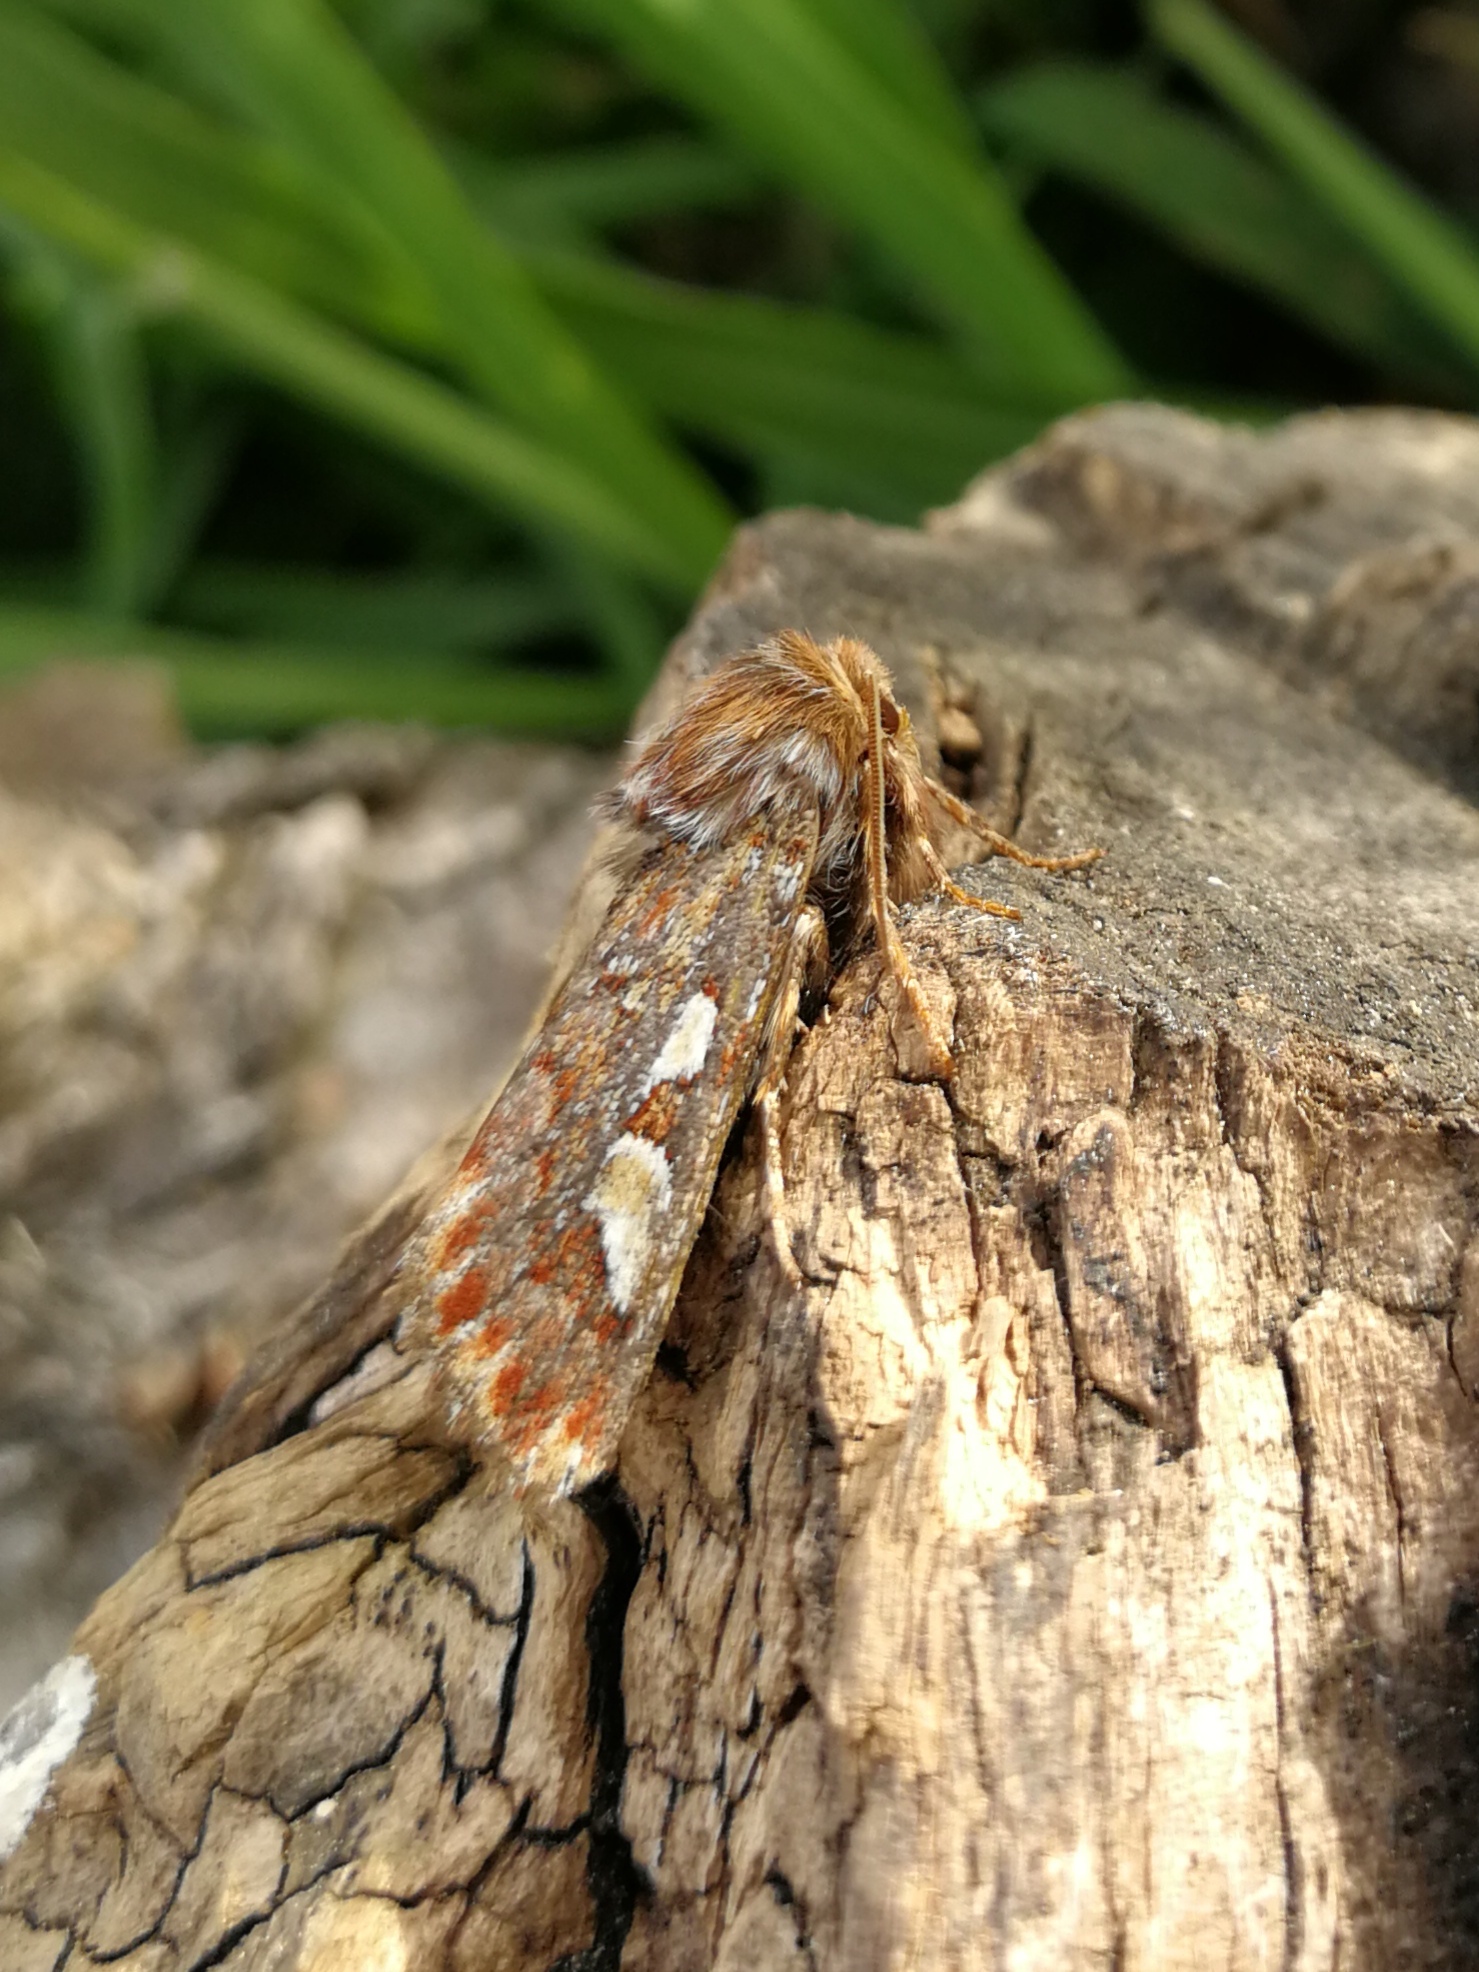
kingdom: Animalia
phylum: Arthropoda
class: Insecta
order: Lepidoptera
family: Noctuidae
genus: Panolis
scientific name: Panolis flammea
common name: Pine beauty
